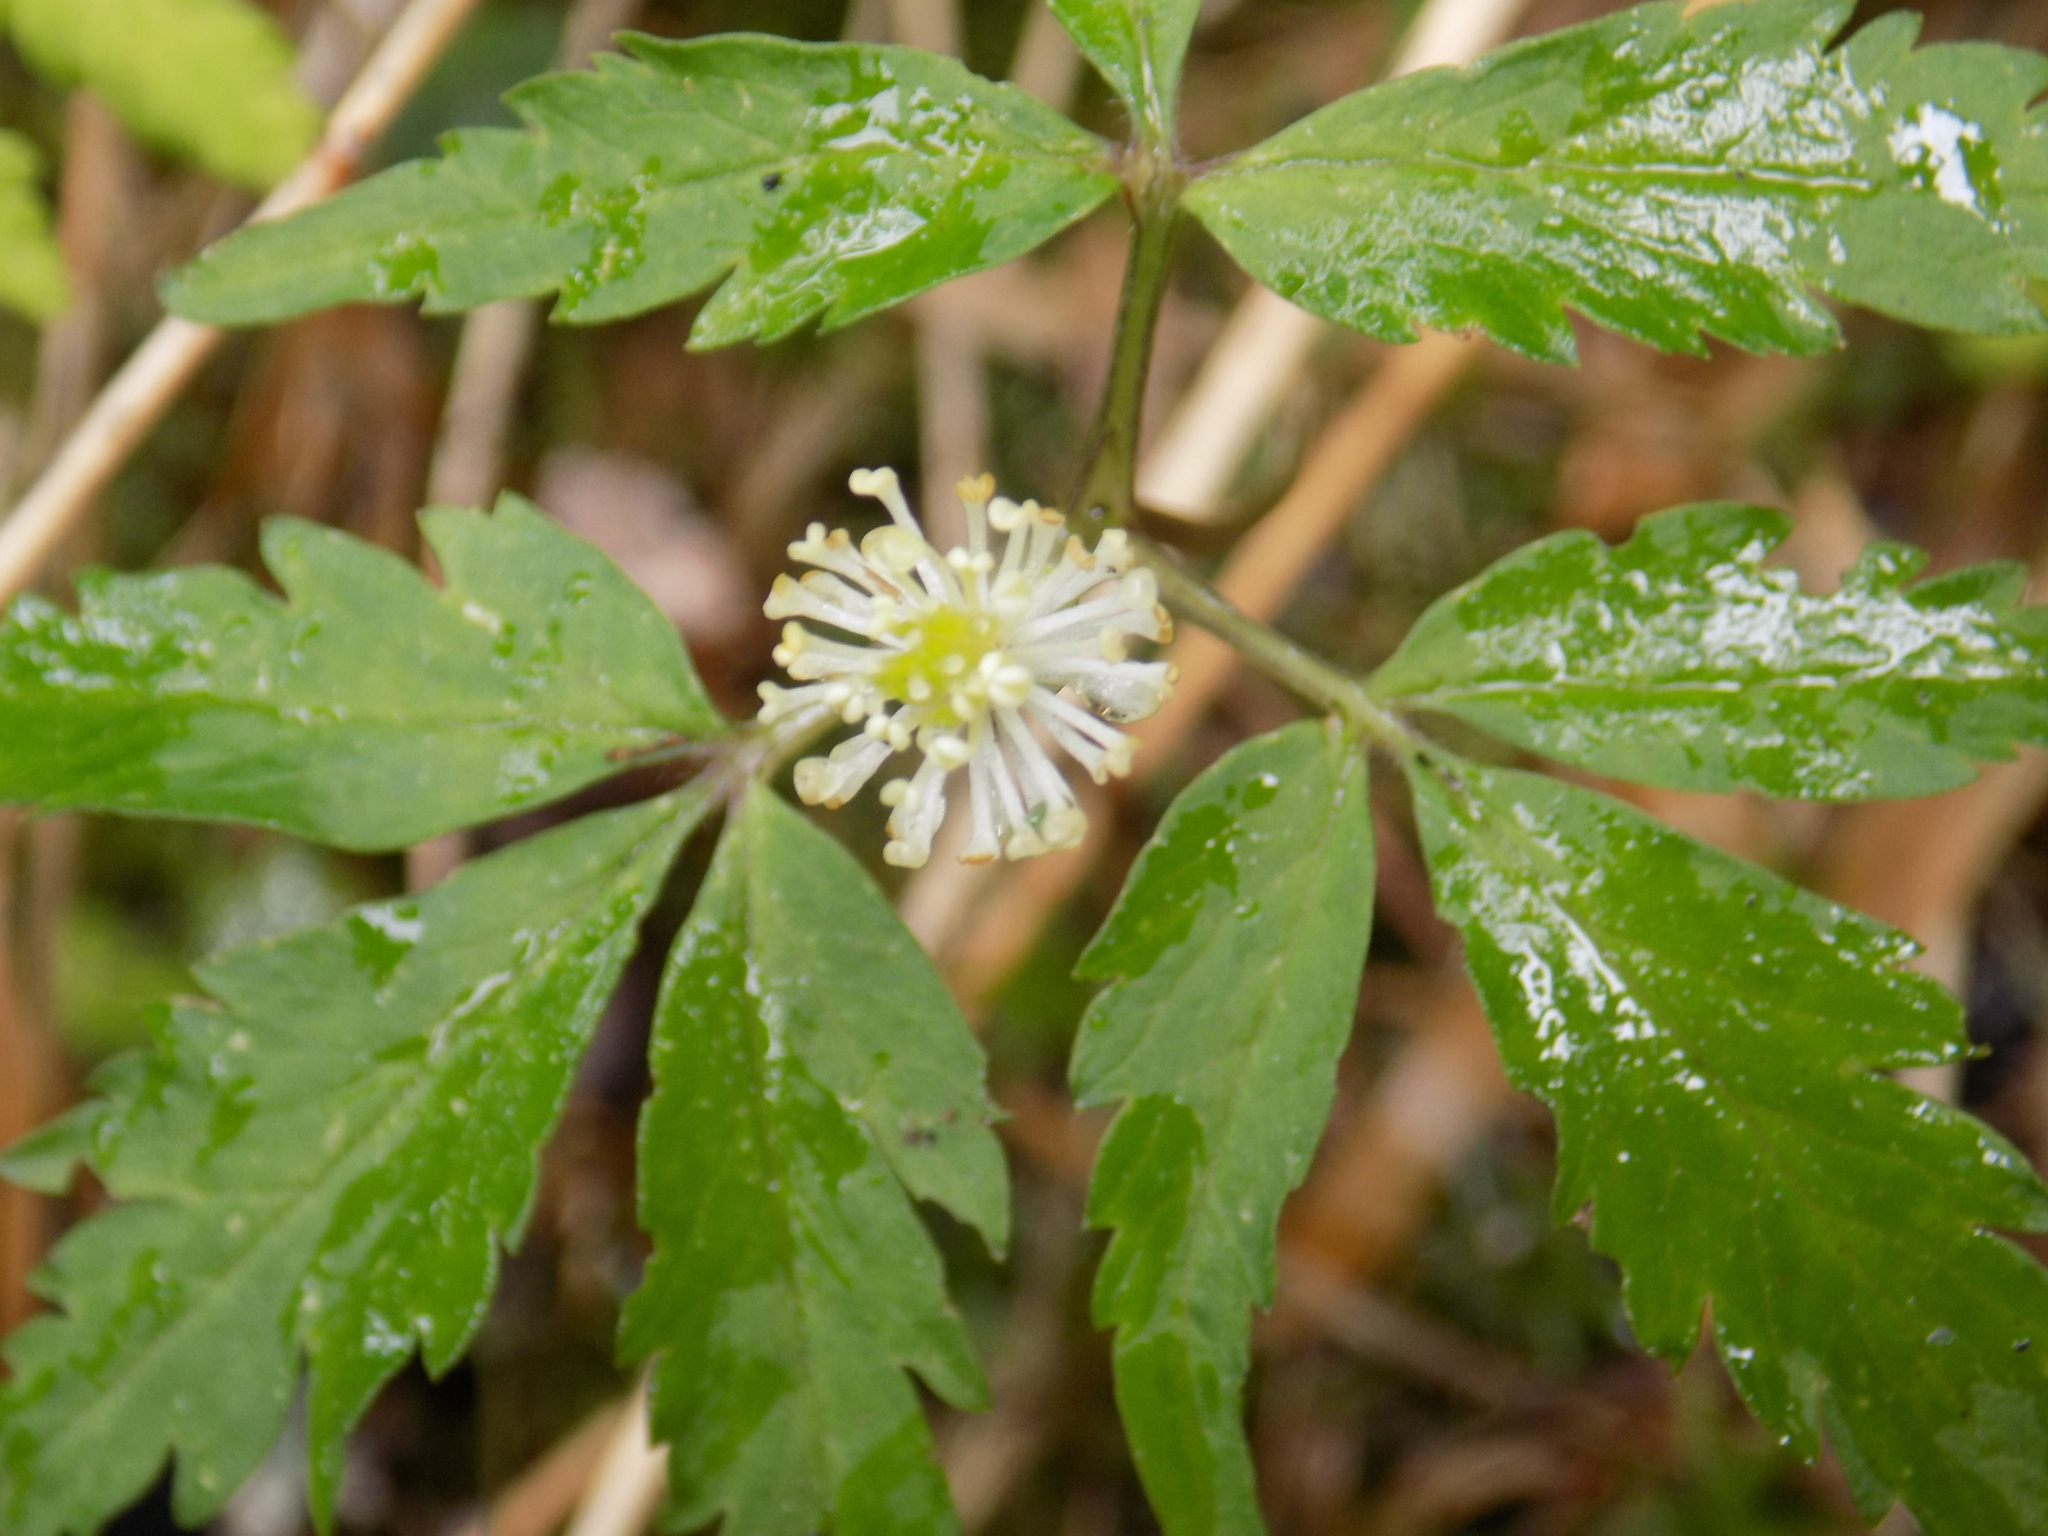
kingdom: Plantae
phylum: Tracheophyta
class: Magnoliopsida
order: Ranunculales
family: Ranunculaceae
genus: Anemone
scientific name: Anemone reflexa
